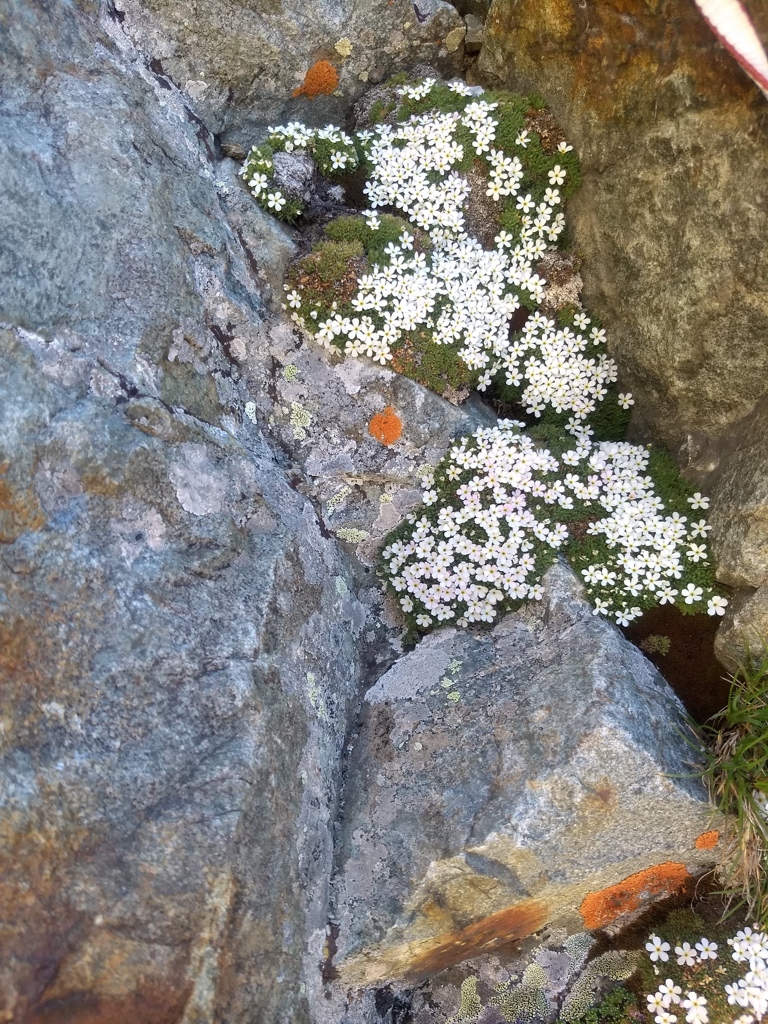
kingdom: Plantae
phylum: Tracheophyta
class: Magnoliopsida
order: Ericales
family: Primulaceae
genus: Androsace
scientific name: Androsace delphinensis
